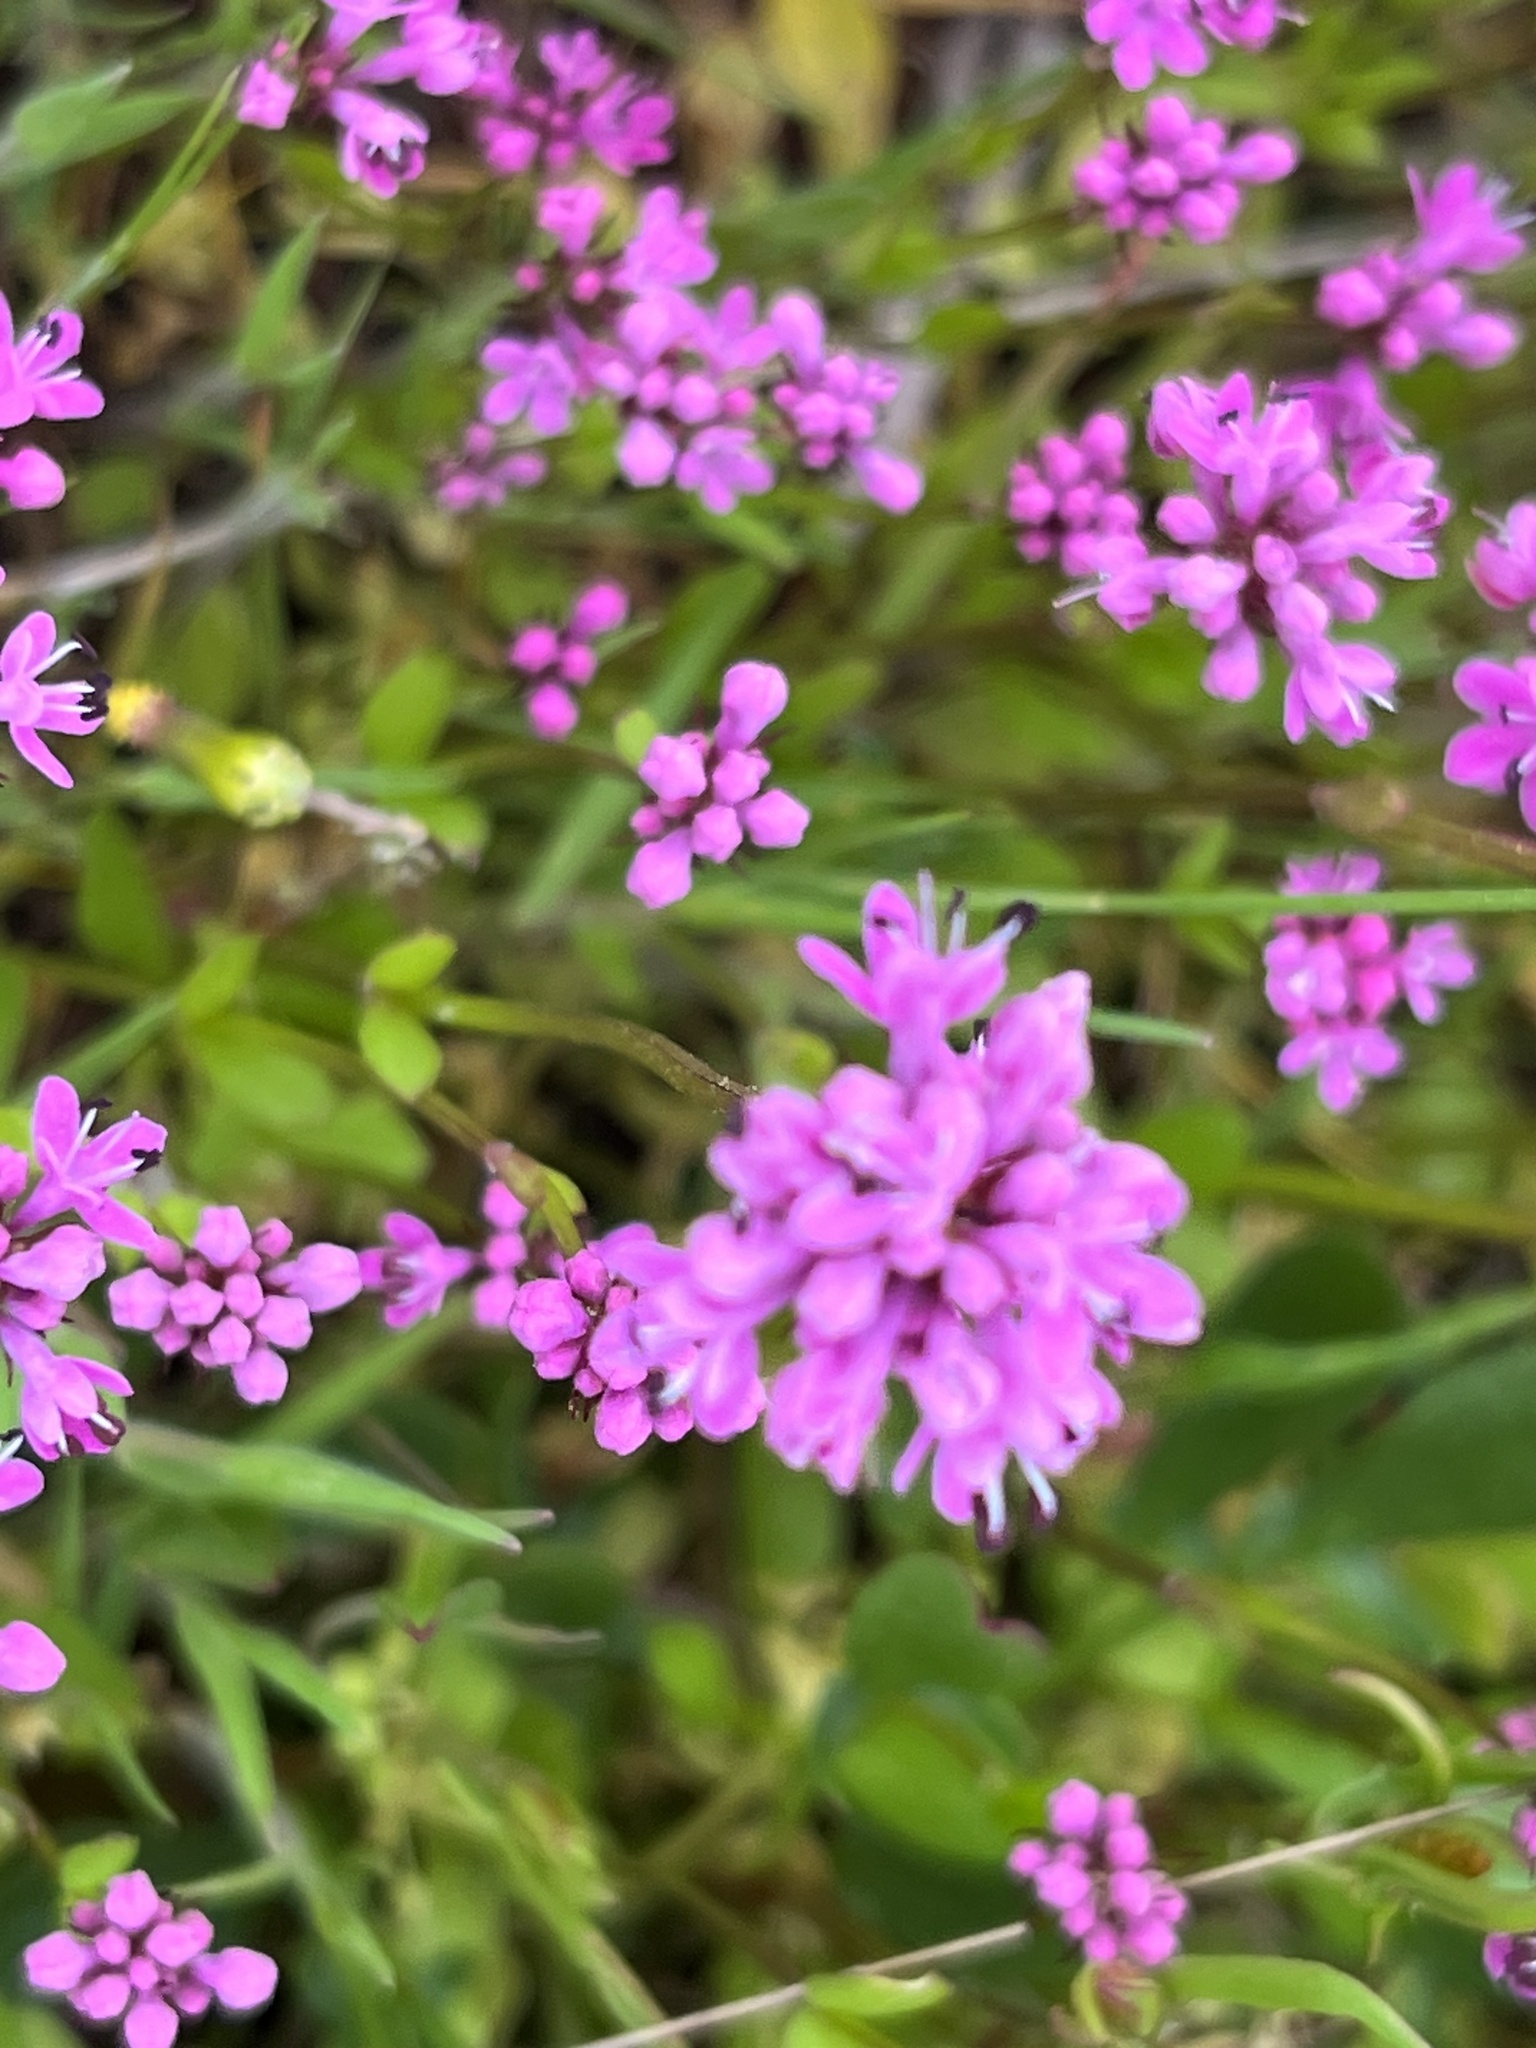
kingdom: Plantae
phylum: Tracheophyta
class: Magnoliopsida
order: Dipsacales
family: Caprifoliaceae
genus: Plectritis
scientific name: Plectritis congesta
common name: Pink plectritis
